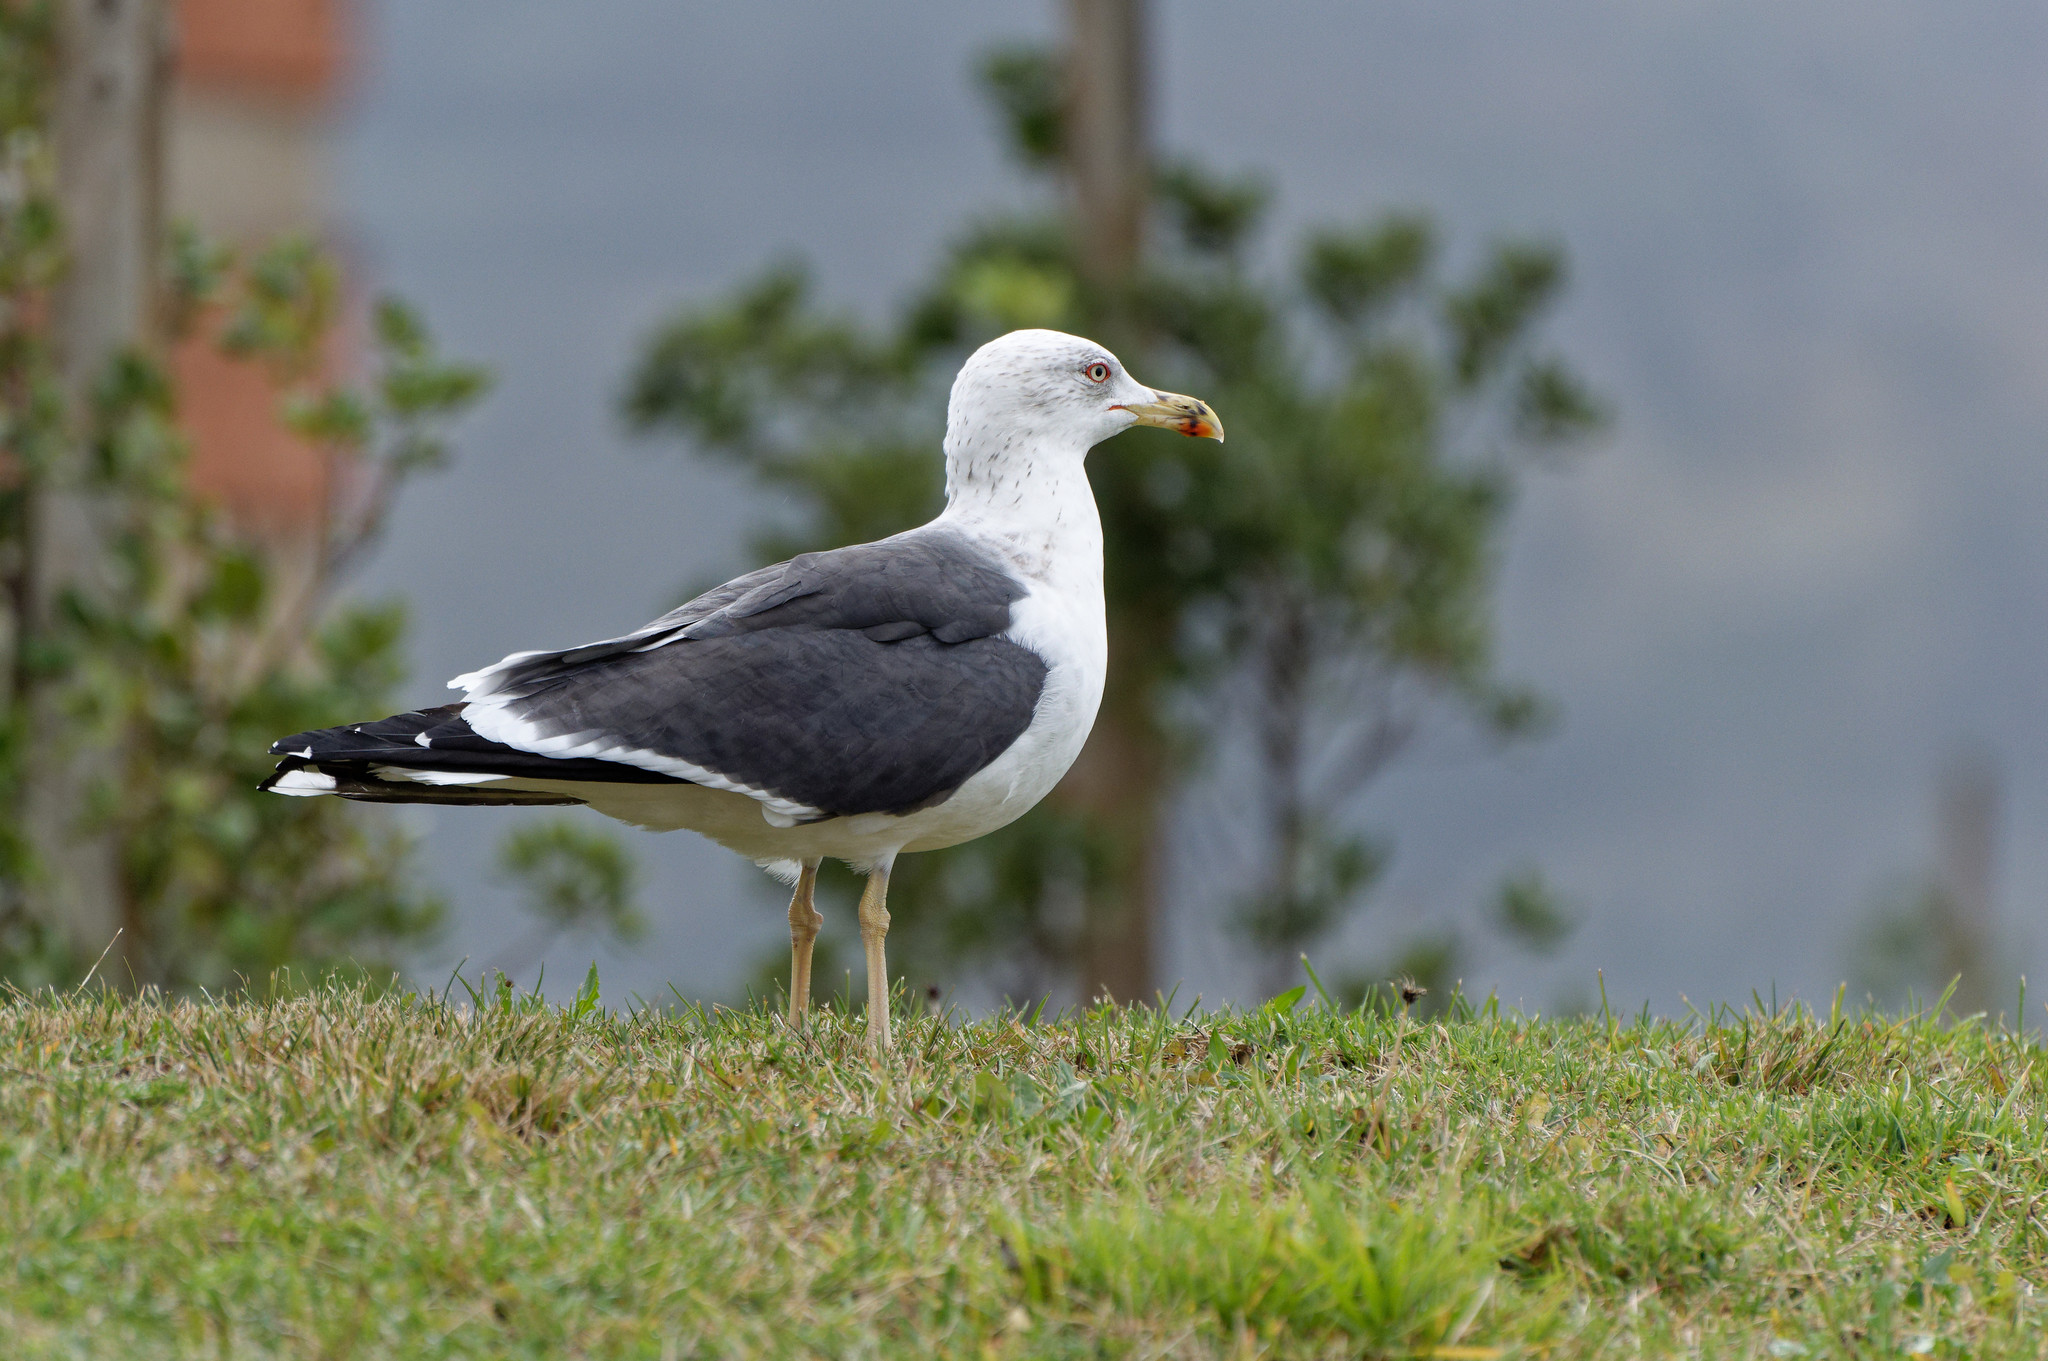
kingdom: Animalia
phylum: Chordata
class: Aves
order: Charadriiformes
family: Laridae
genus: Larus
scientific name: Larus fuscus
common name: Lesser black-backed gull
